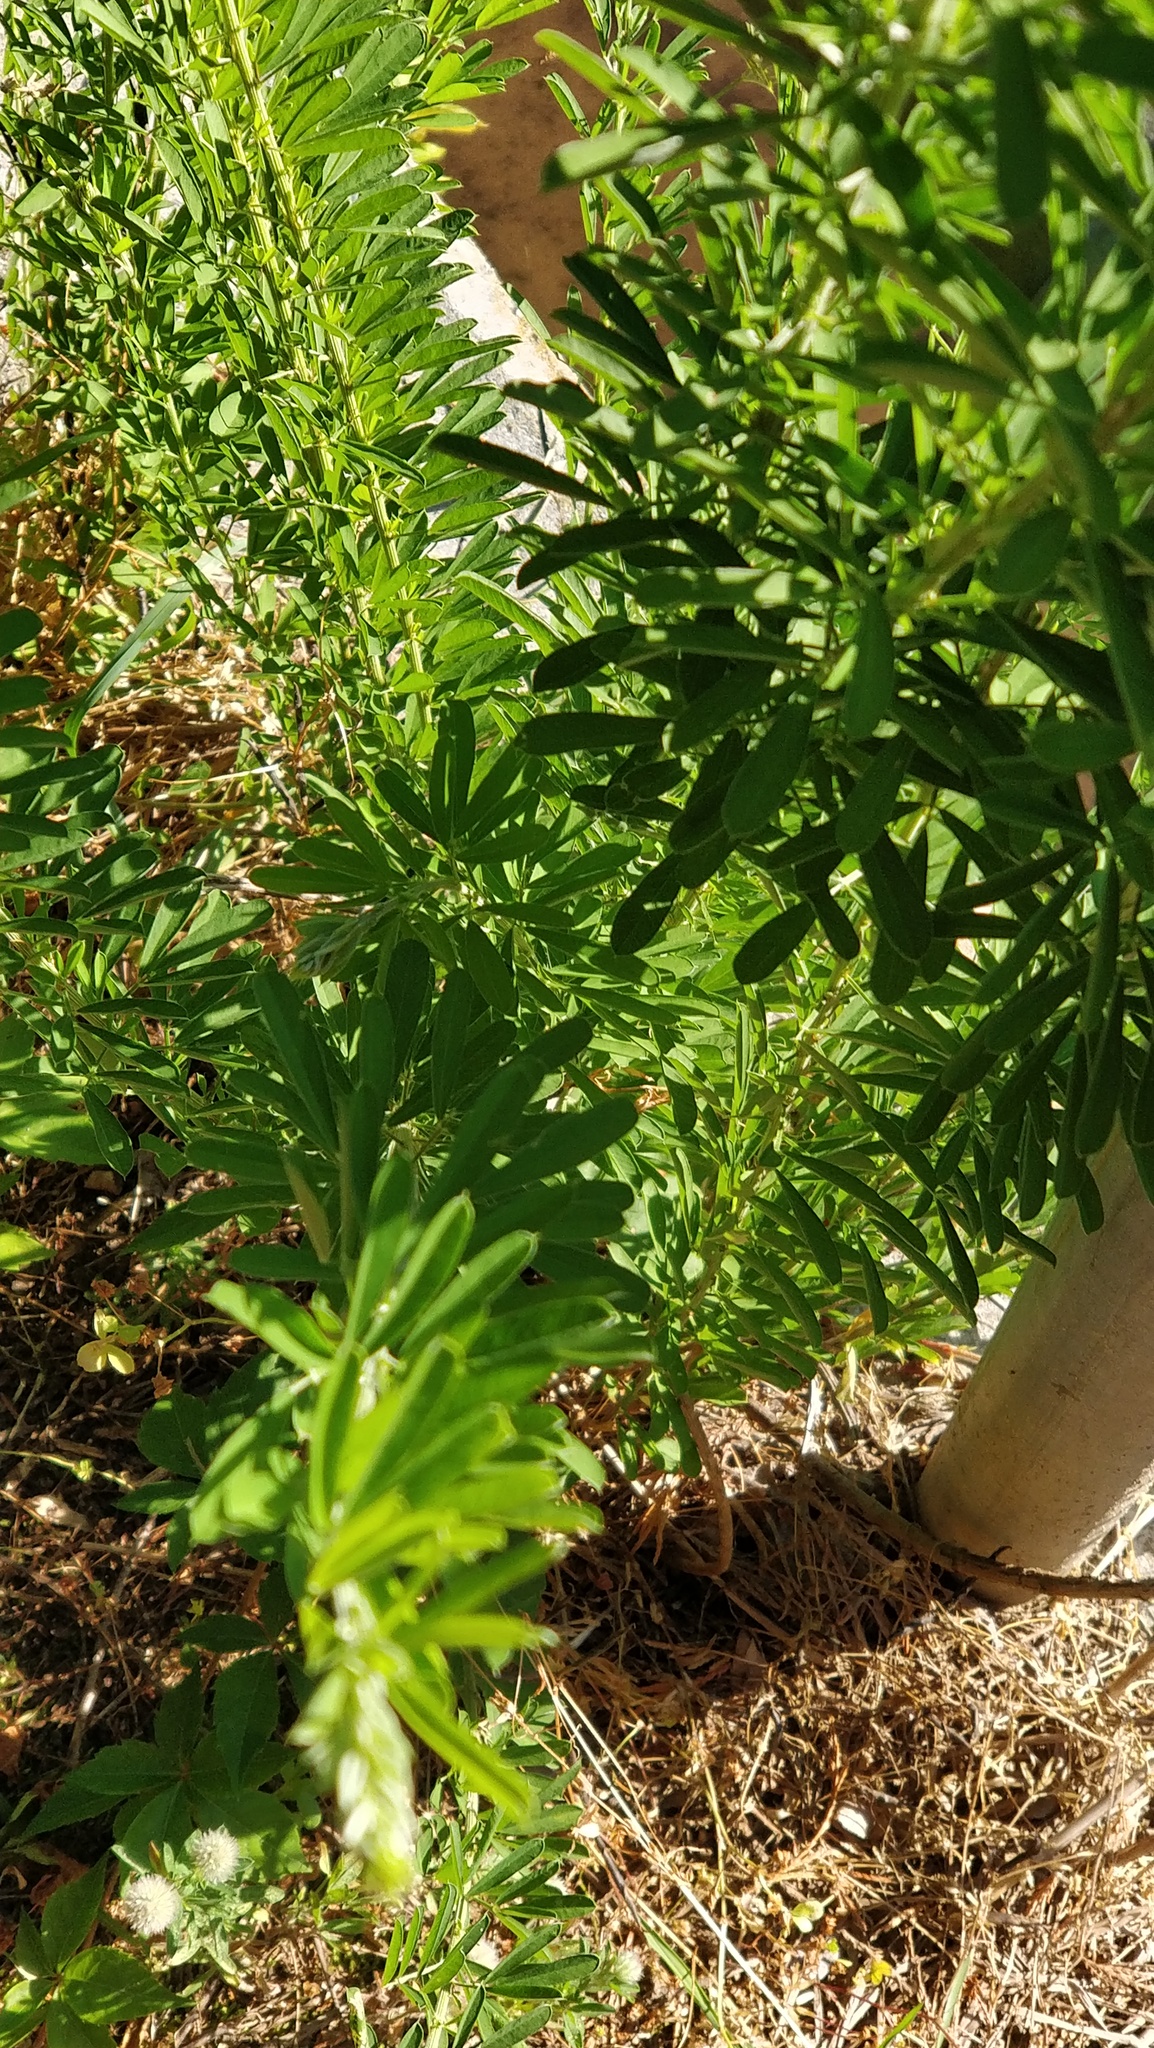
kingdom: Plantae
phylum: Tracheophyta
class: Magnoliopsida
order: Fabales
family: Fabaceae
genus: Lespedeza
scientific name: Lespedeza cuneata
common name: Chinese bush-clover
